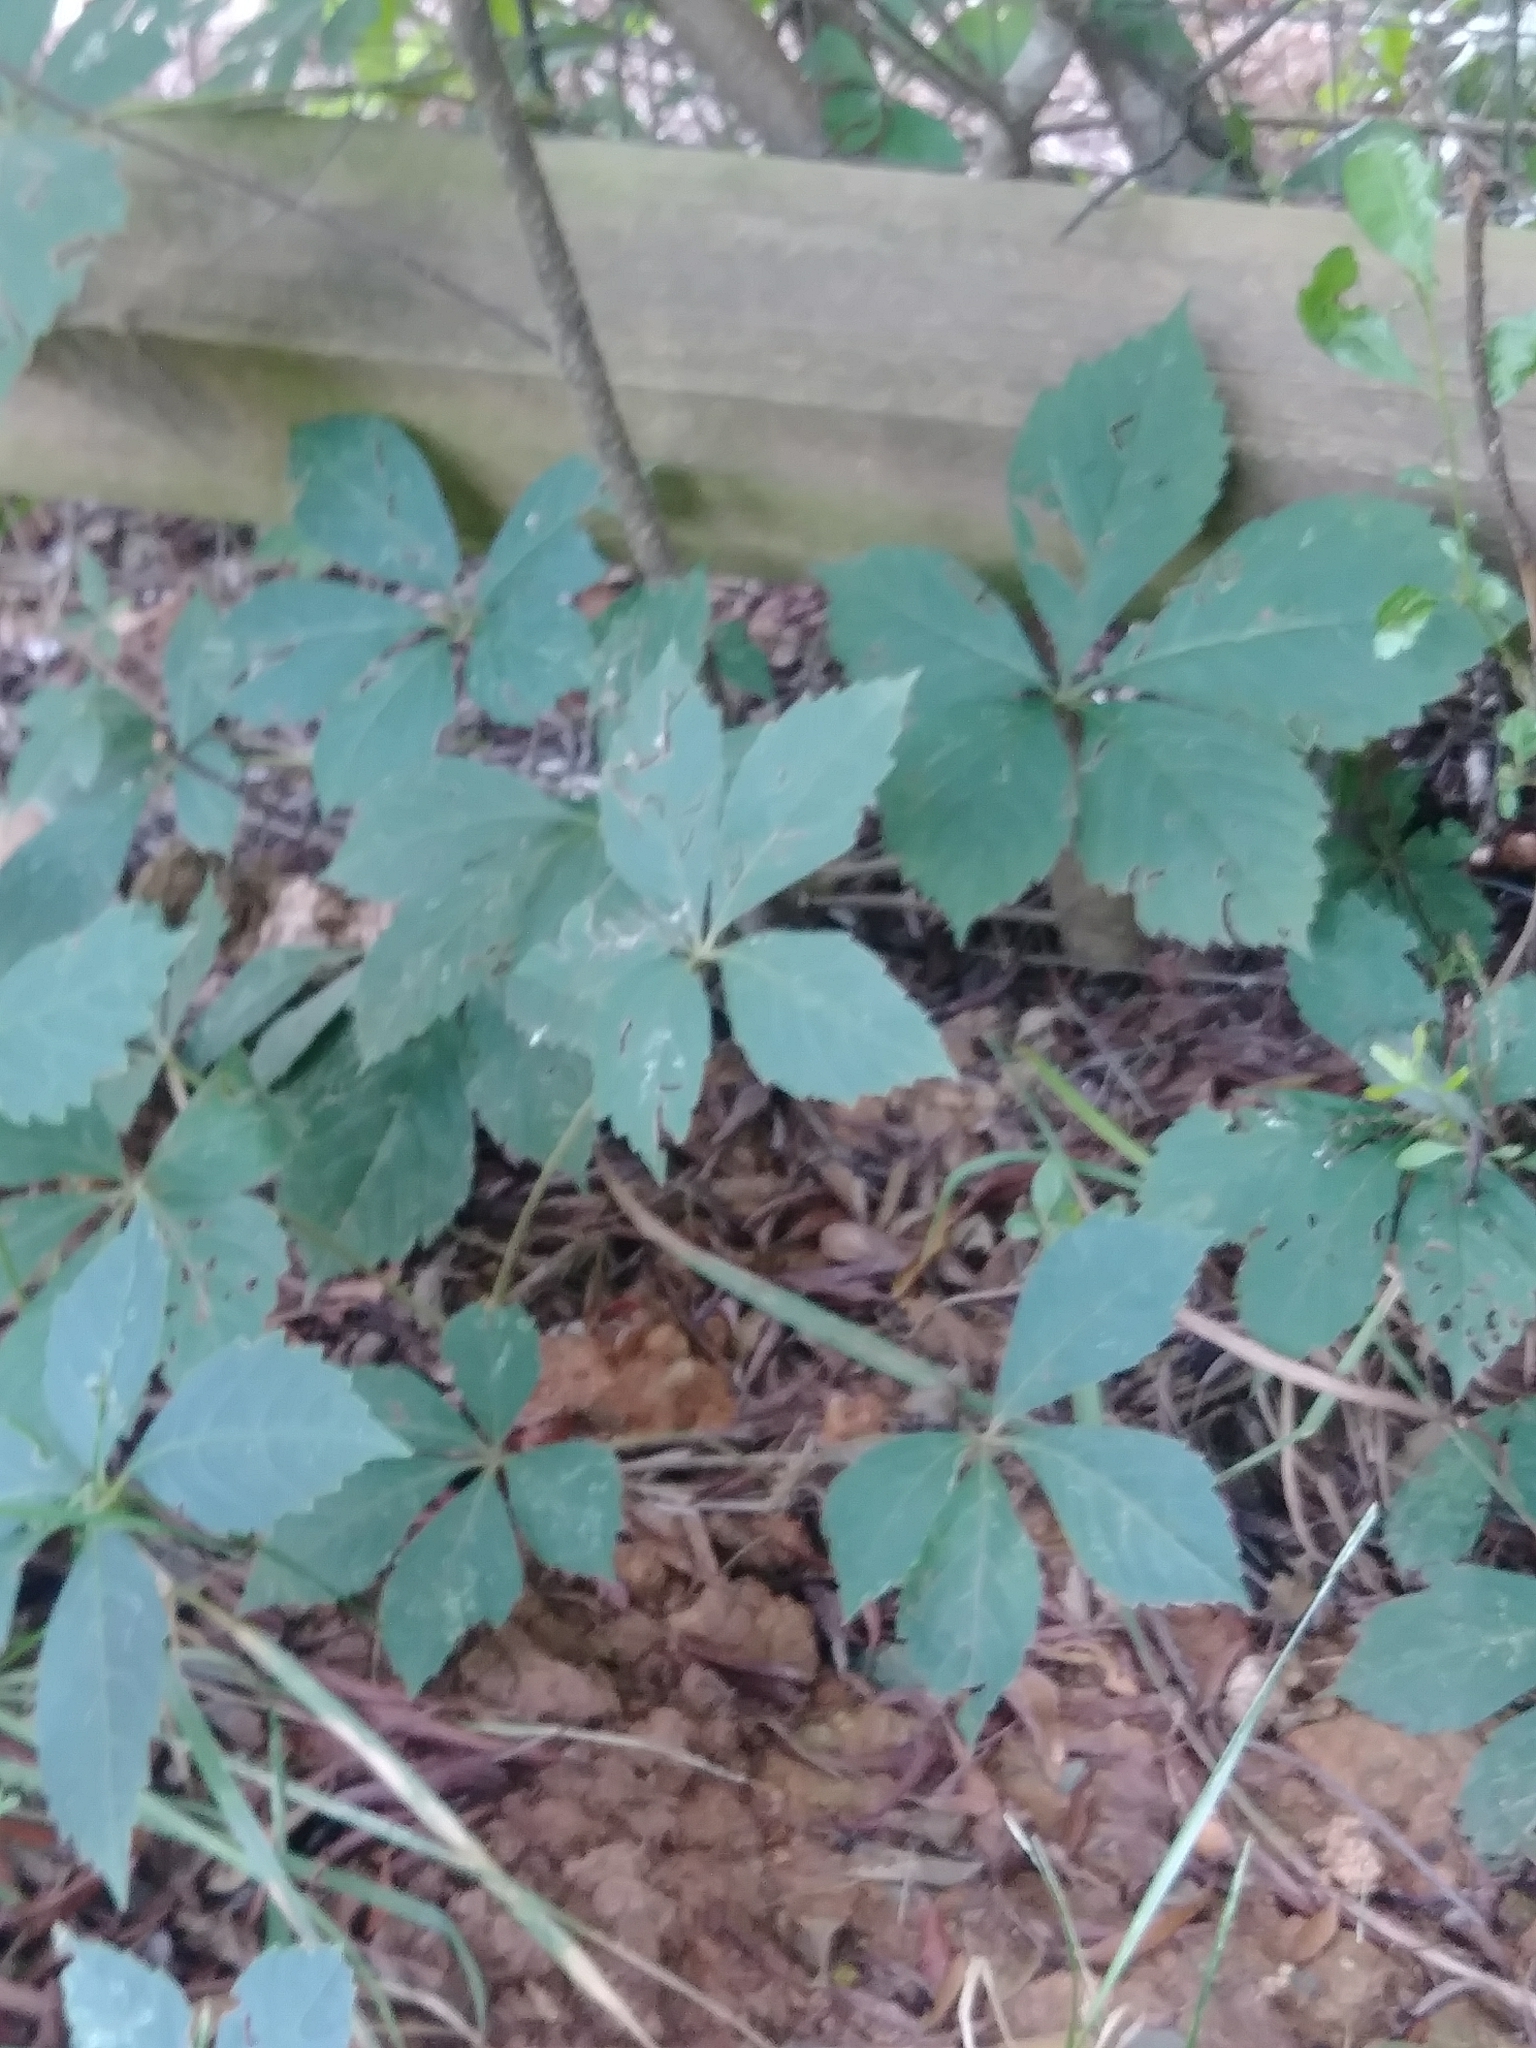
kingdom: Plantae
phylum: Tracheophyta
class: Magnoliopsida
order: Vitales
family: Vitaceae
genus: Parthenocissus
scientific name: Parthenocissus quinquefolia
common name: Virginia-creeper
